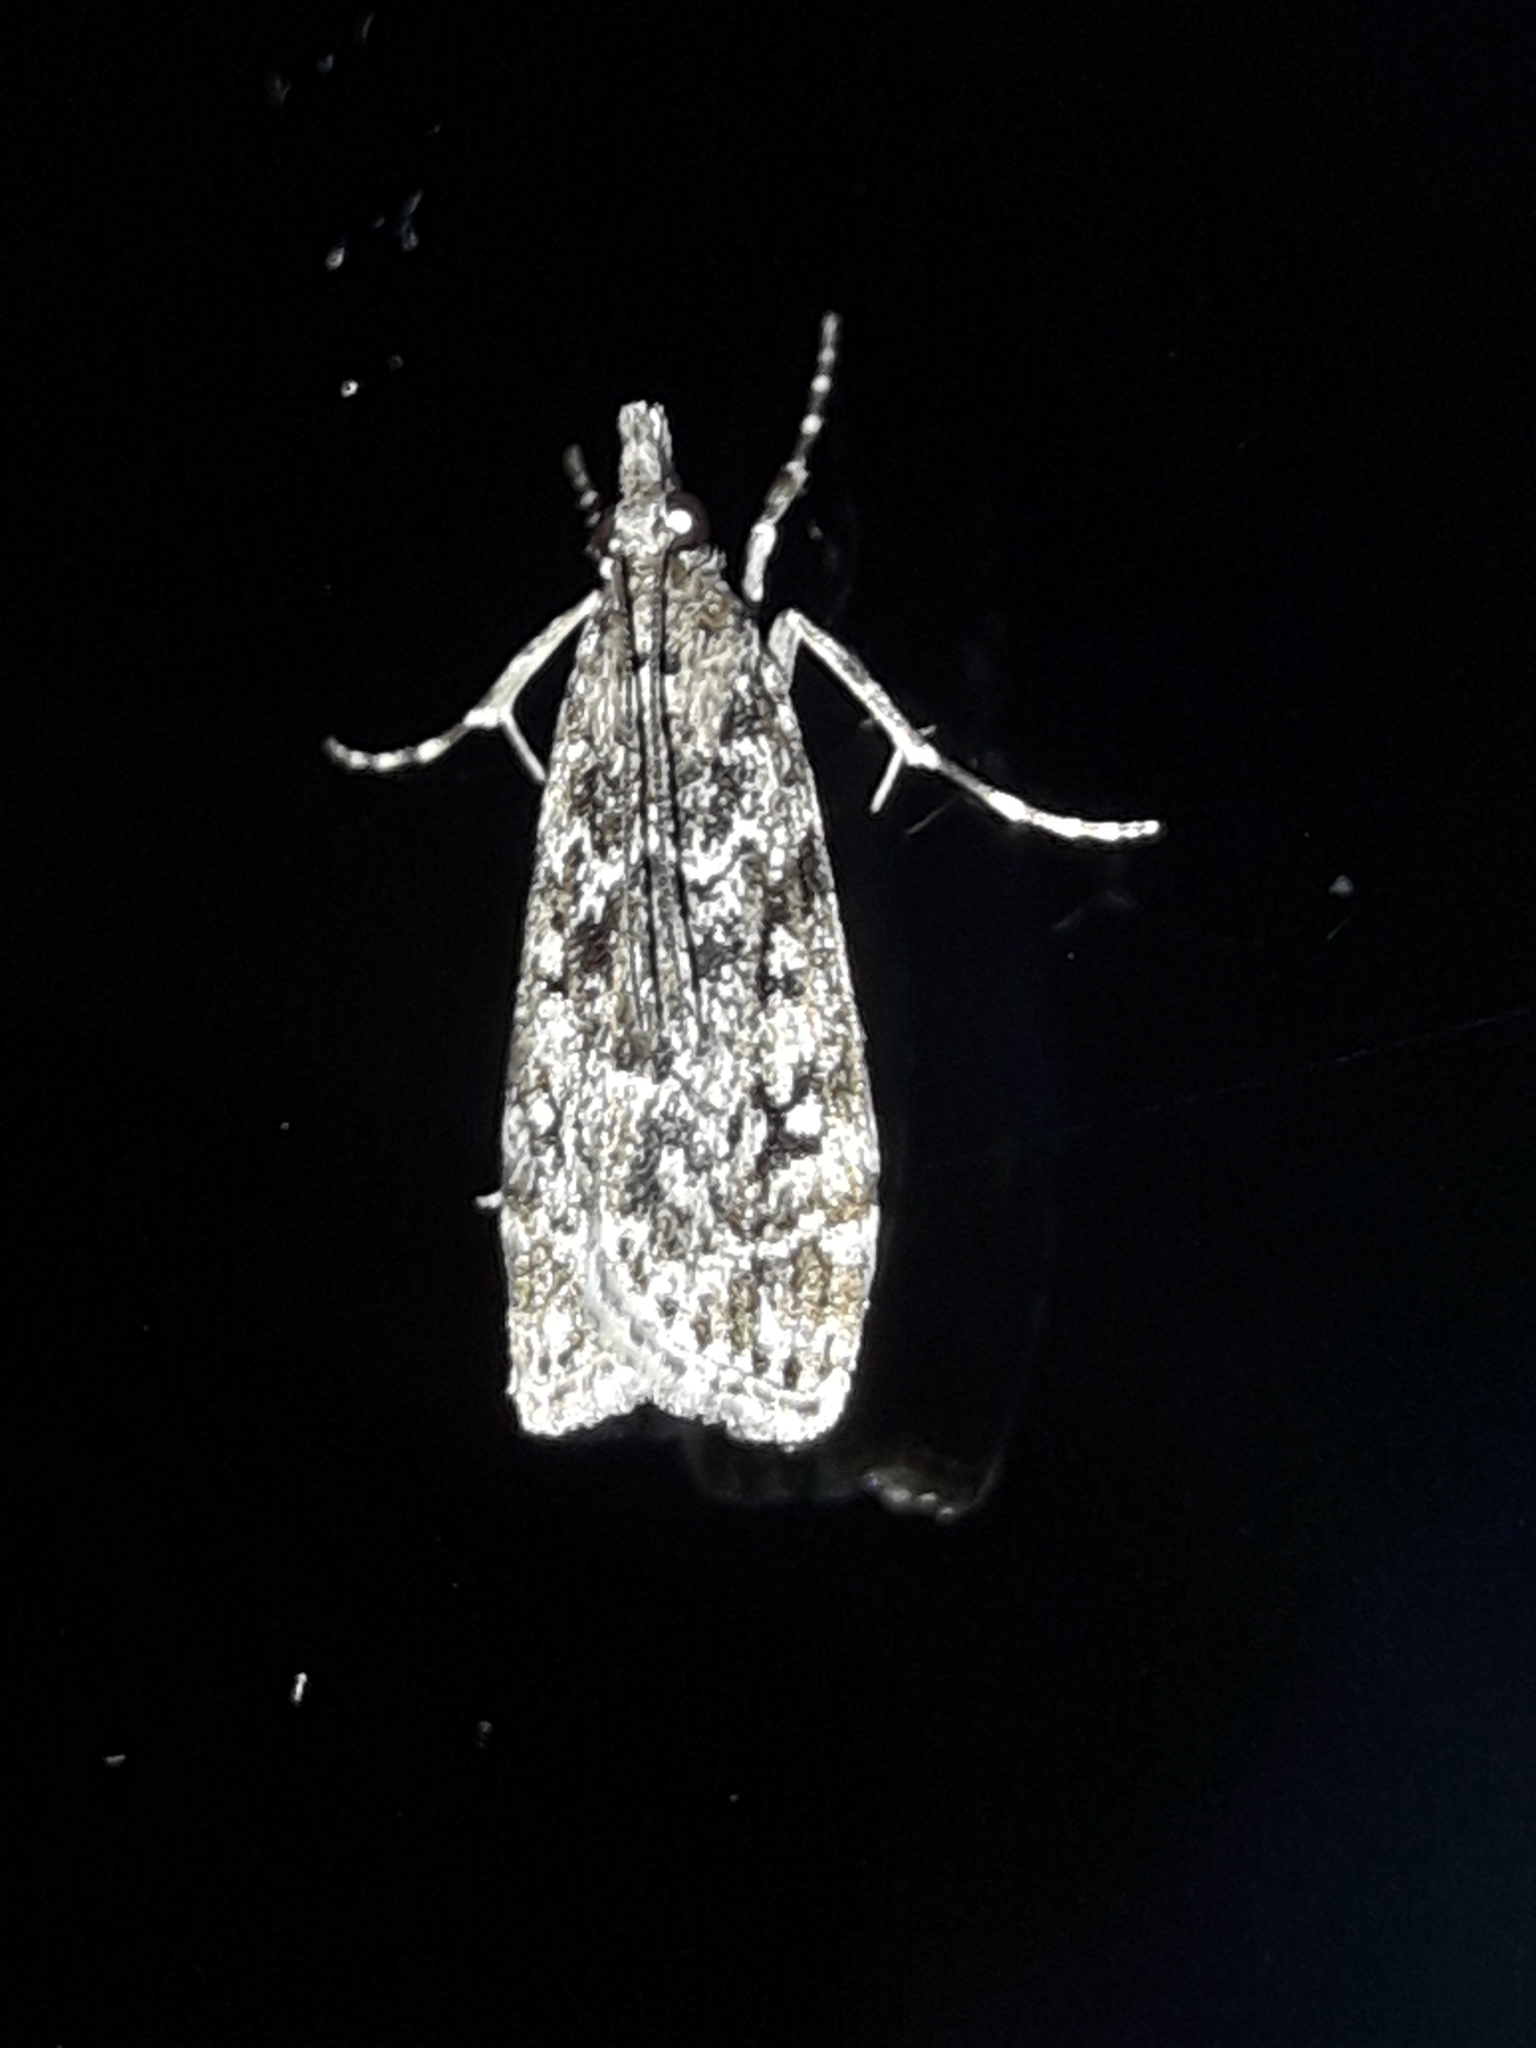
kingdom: Animalia
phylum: Arthropoda
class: Insecta
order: Lepidoptera
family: Crambidae
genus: Eudonia
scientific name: Eudonia philerga
